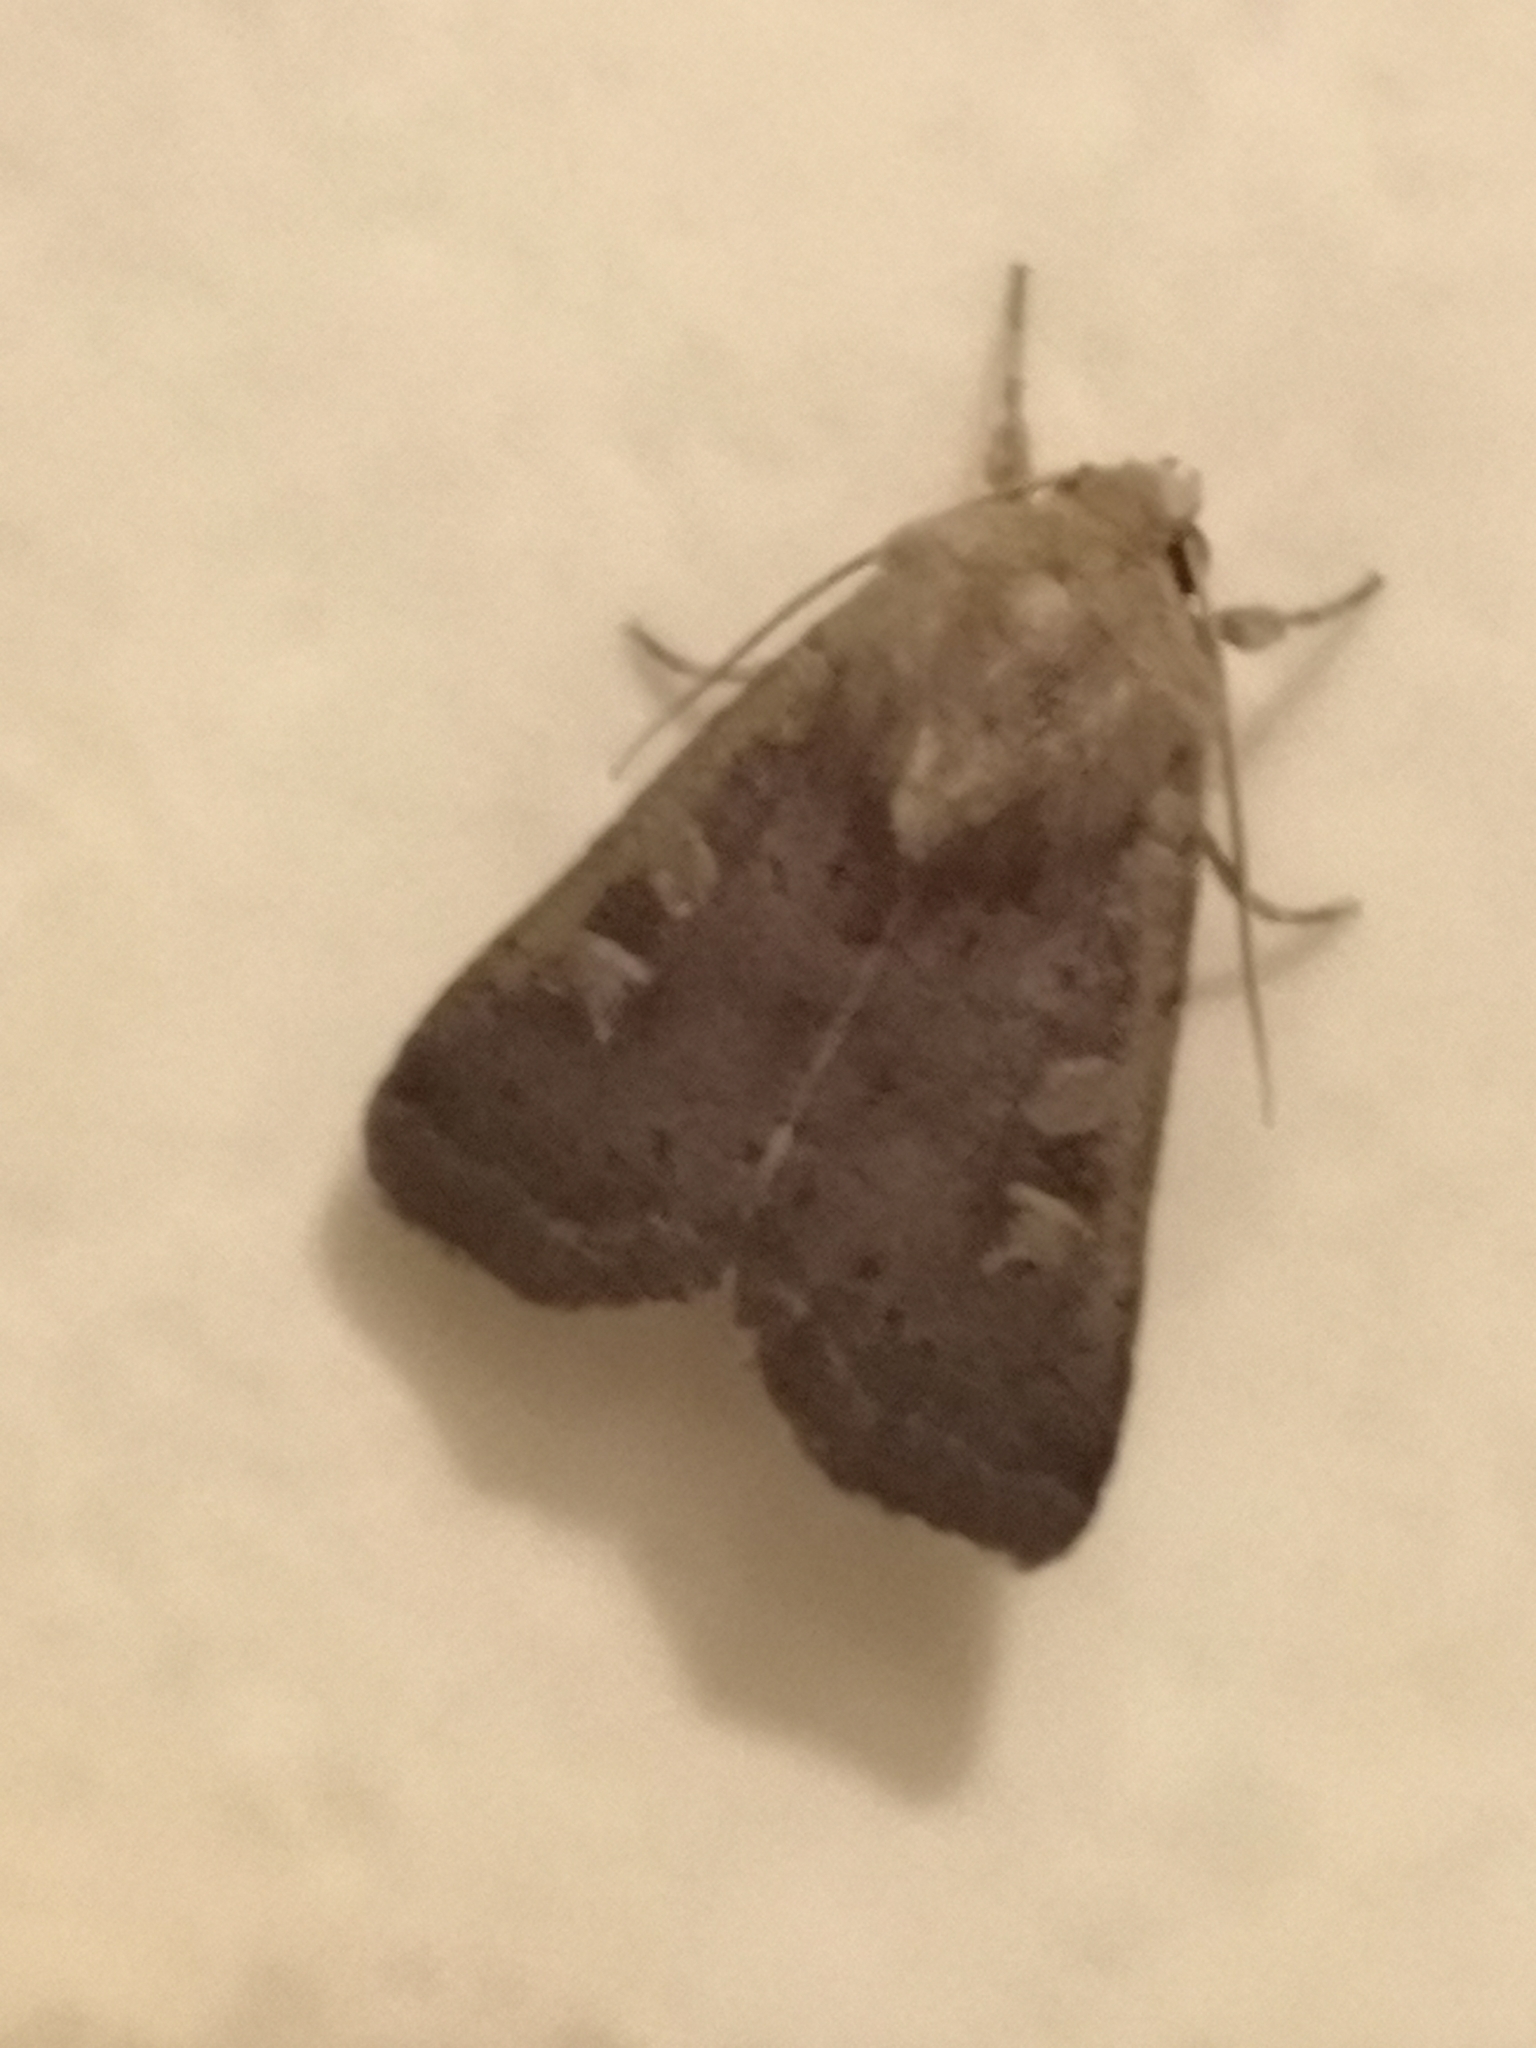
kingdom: Animalia
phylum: Arthropoda
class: Insecta
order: Lepidoptera
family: Noctuidae
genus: Xestia
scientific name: Xestia xanthographa
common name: Square-spot rustic
